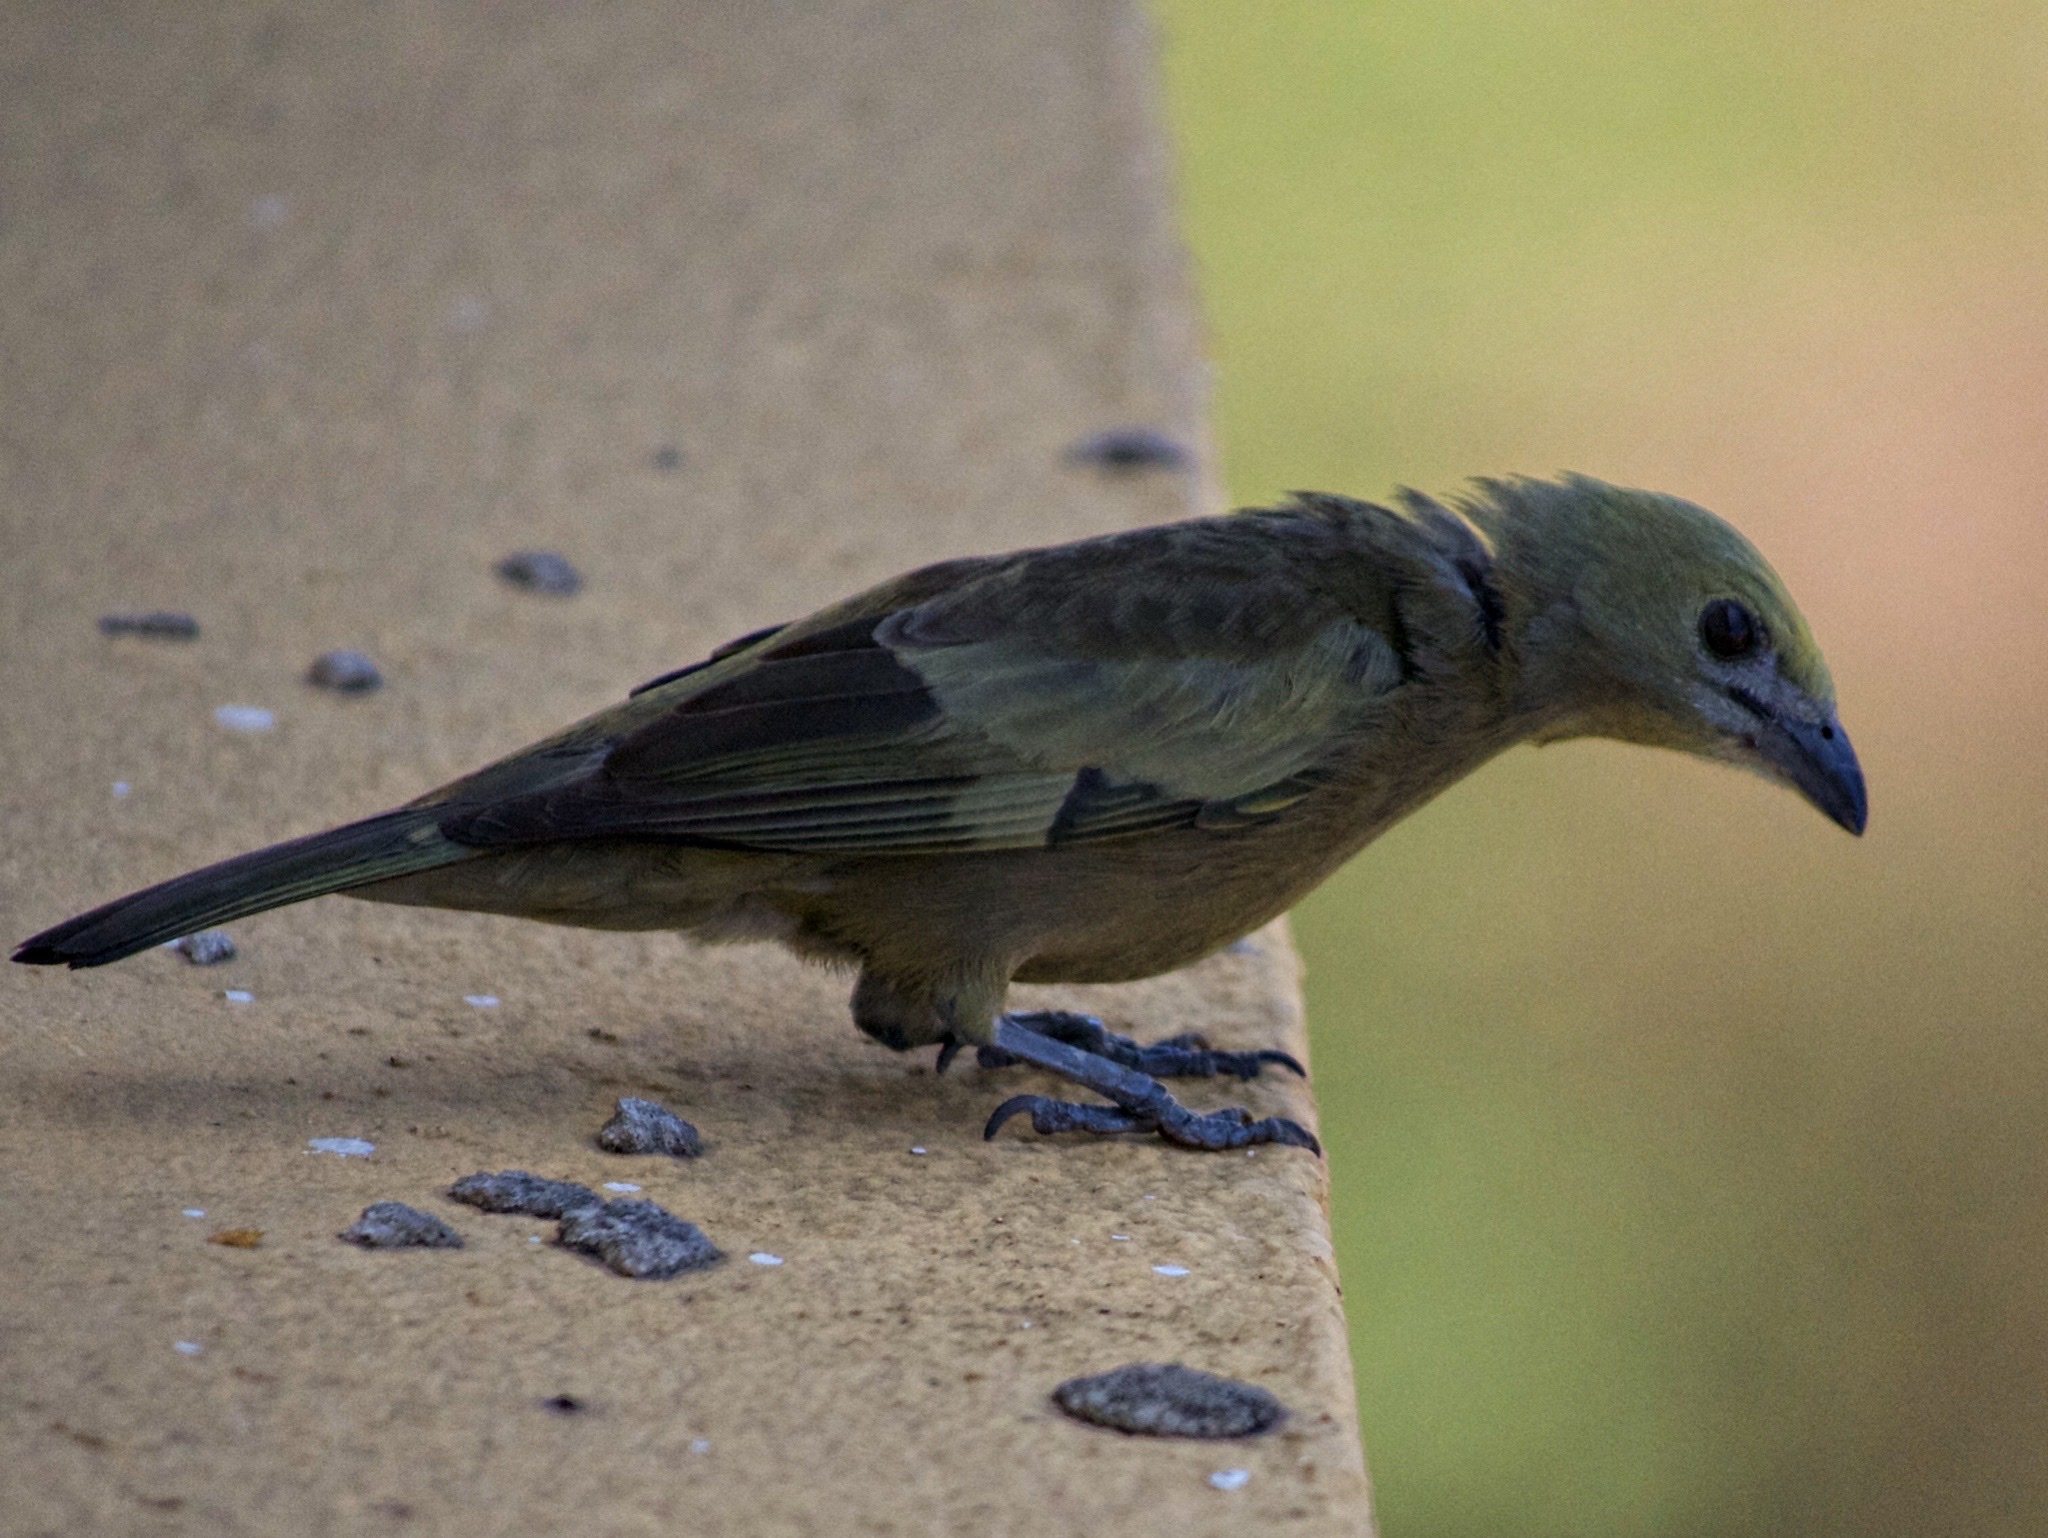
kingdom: Animalia
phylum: Chordata
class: Aves
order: Passeriformes
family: Thraupidae
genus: Thraupis
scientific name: Thraupis palmarum
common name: Palm tanager
